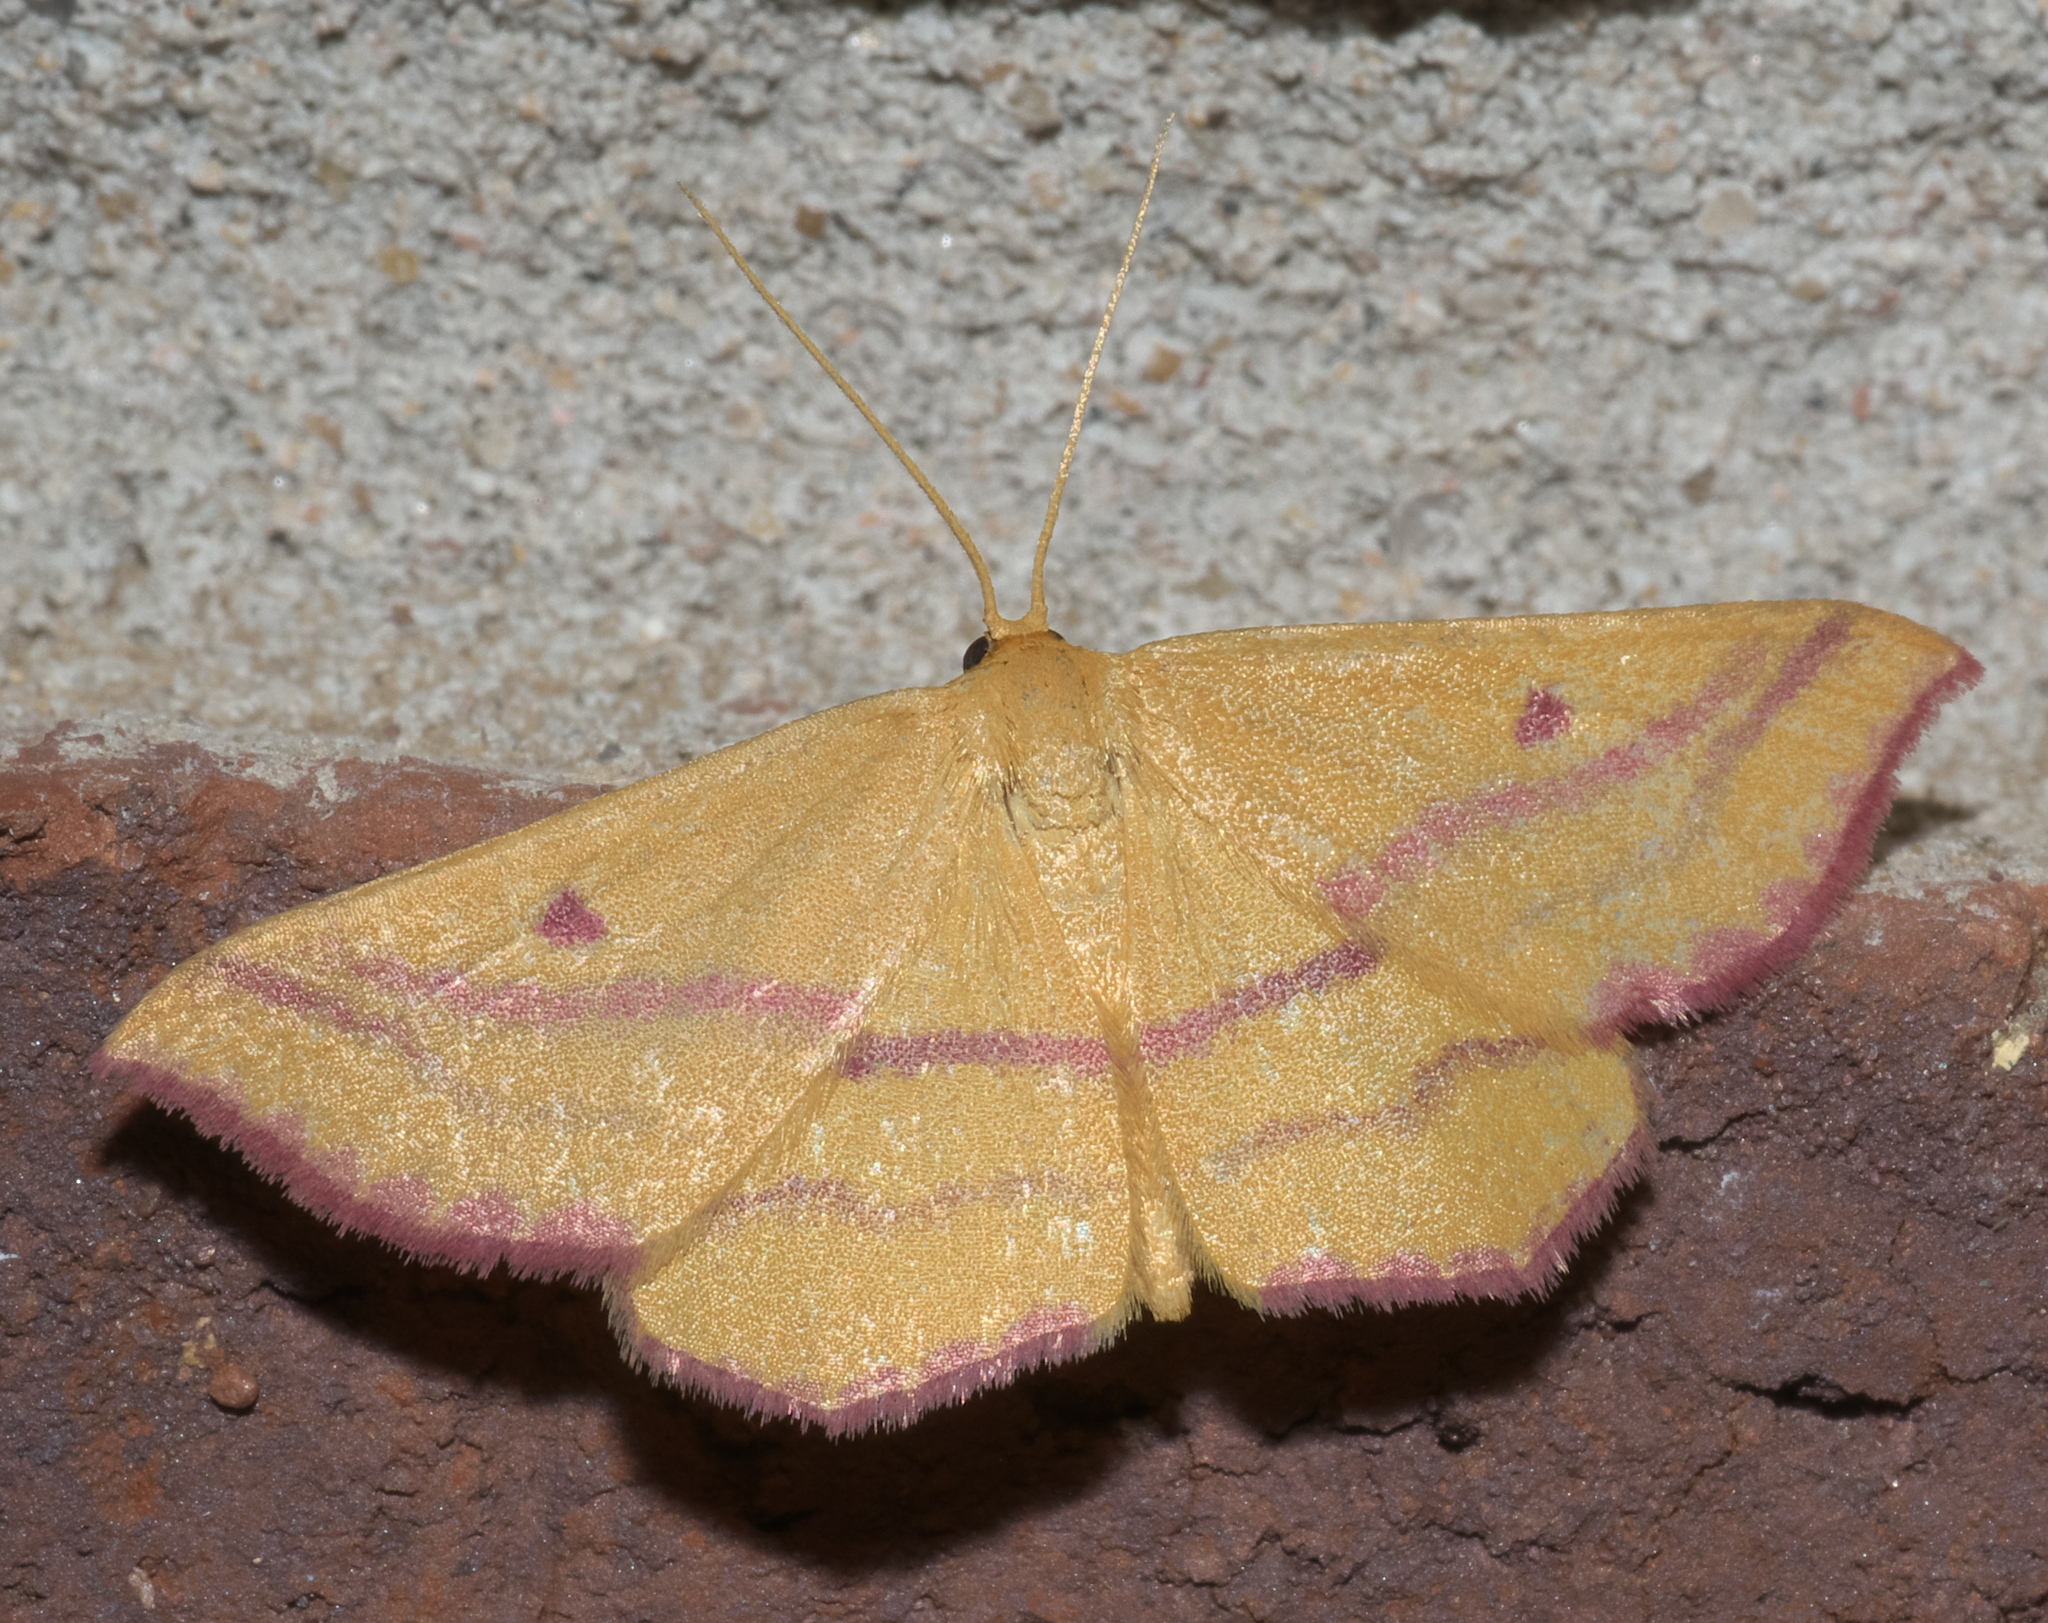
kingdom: Animalia
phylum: Arthropoda
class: Insecta
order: Lepidoptera
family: Geometridae
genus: Haematopis
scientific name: Haematopis grataria
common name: Chickweed geometer
